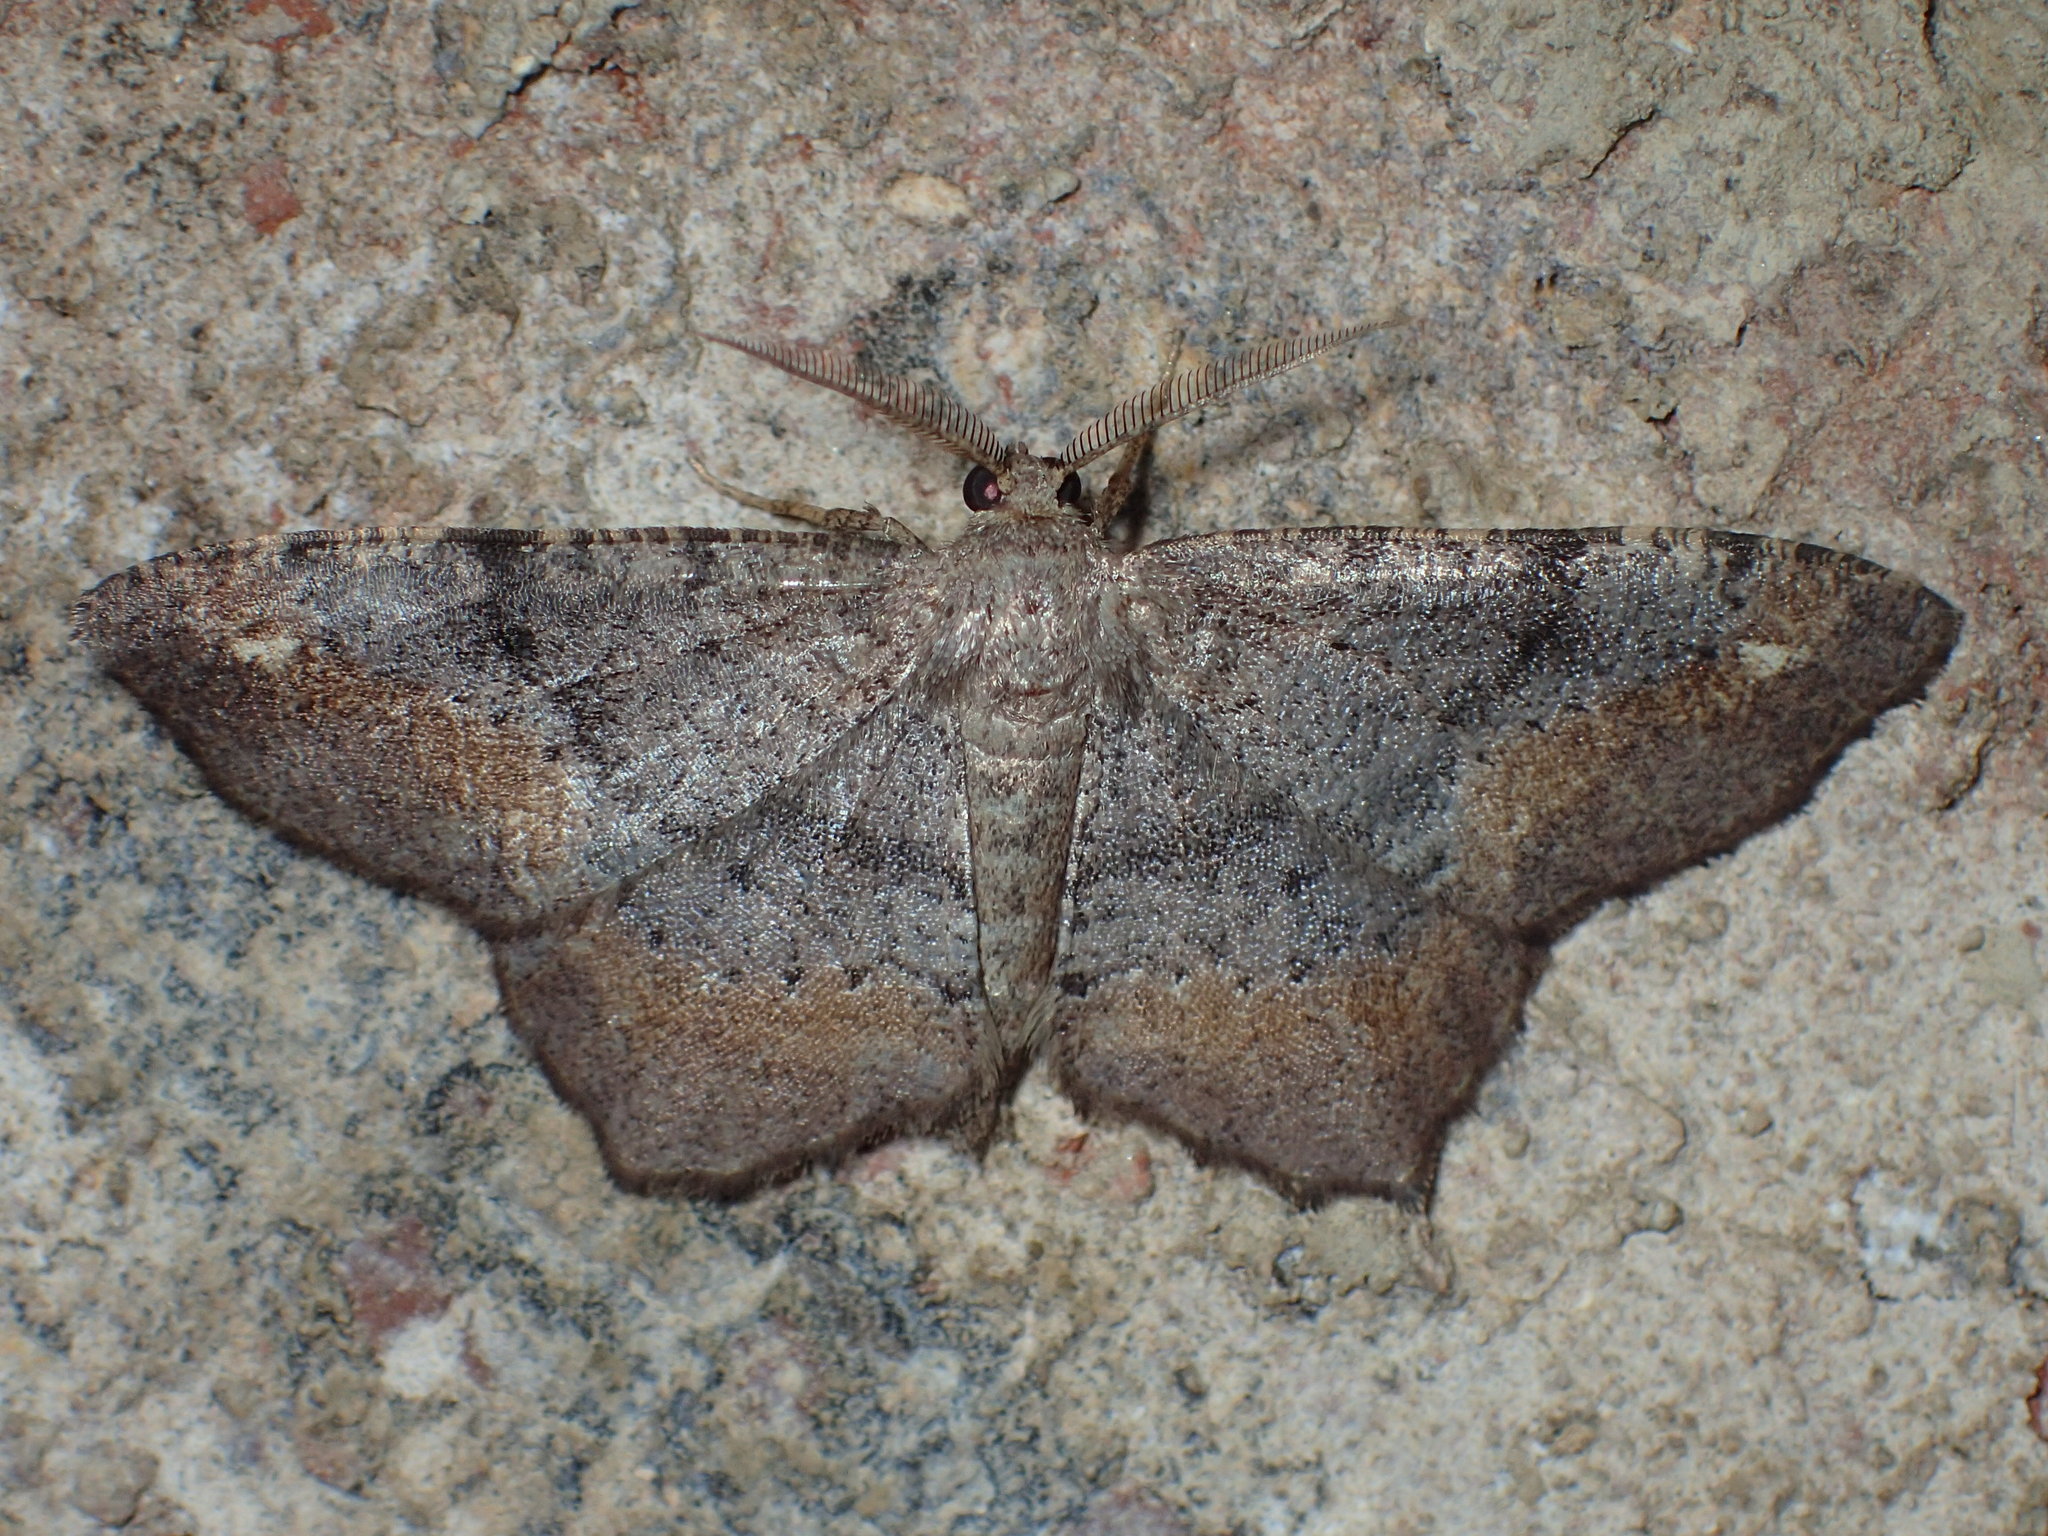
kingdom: Animalia
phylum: Arthropoda
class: Insecta
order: Lepidoptera
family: Geometridae
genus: Hypagyrtis
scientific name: Hypagyrtis
